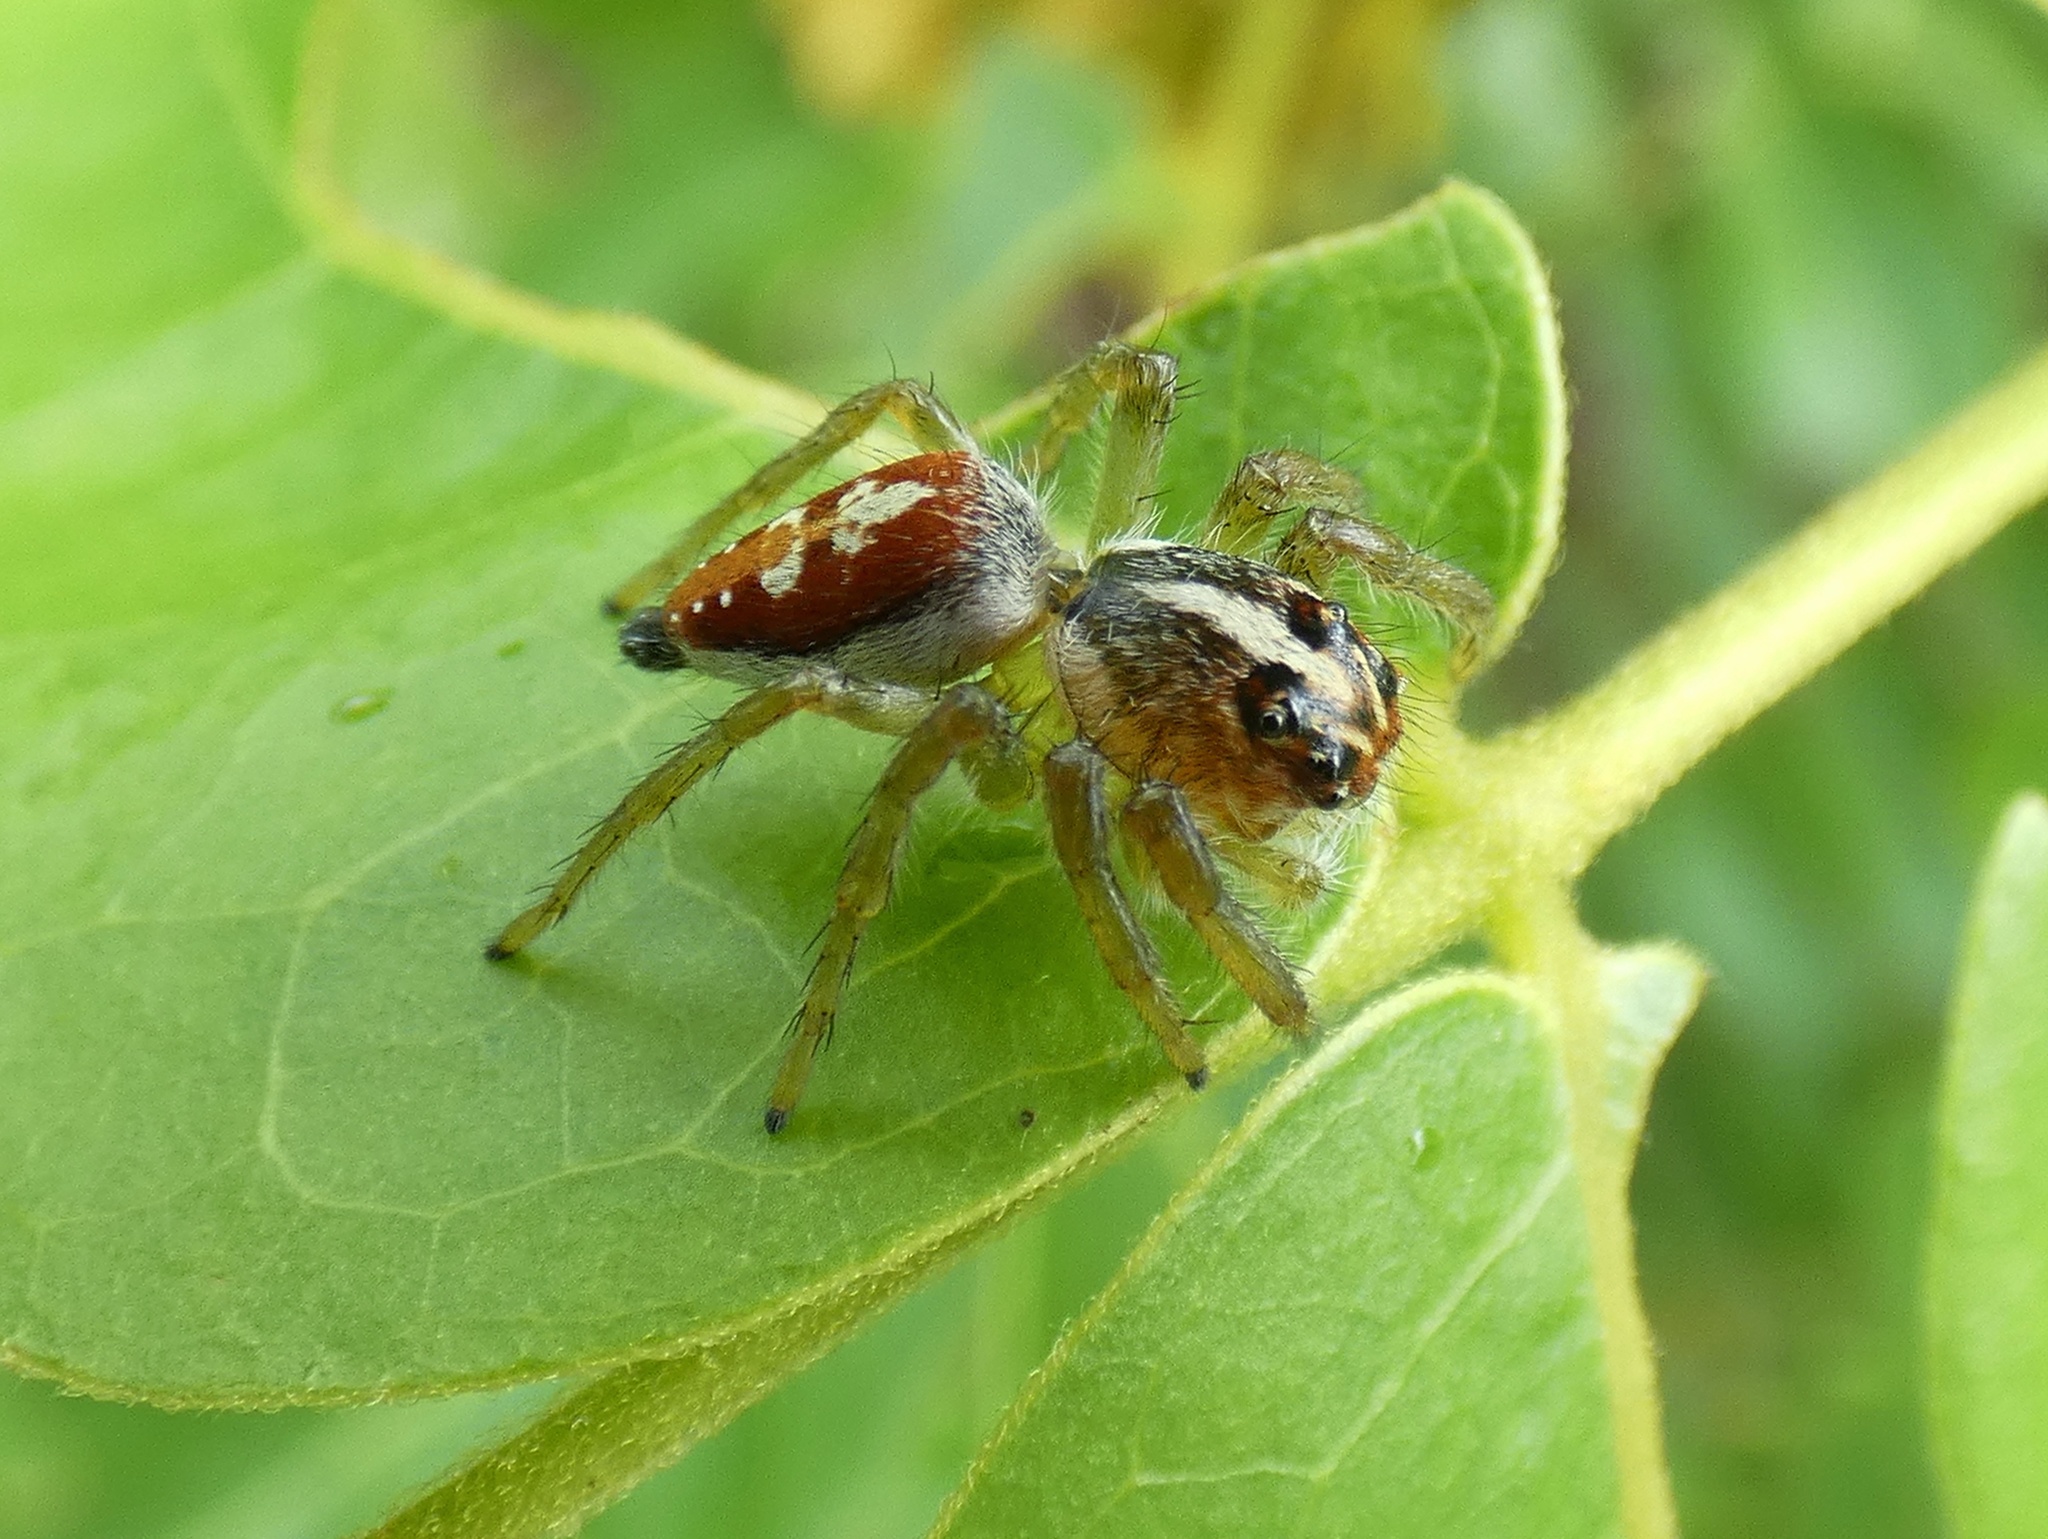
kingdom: Animalia
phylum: Arthropoda
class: Arachnida
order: Araneae
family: Salticidae
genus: Frigga
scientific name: Frigga pratensis
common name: Jumping spiders
